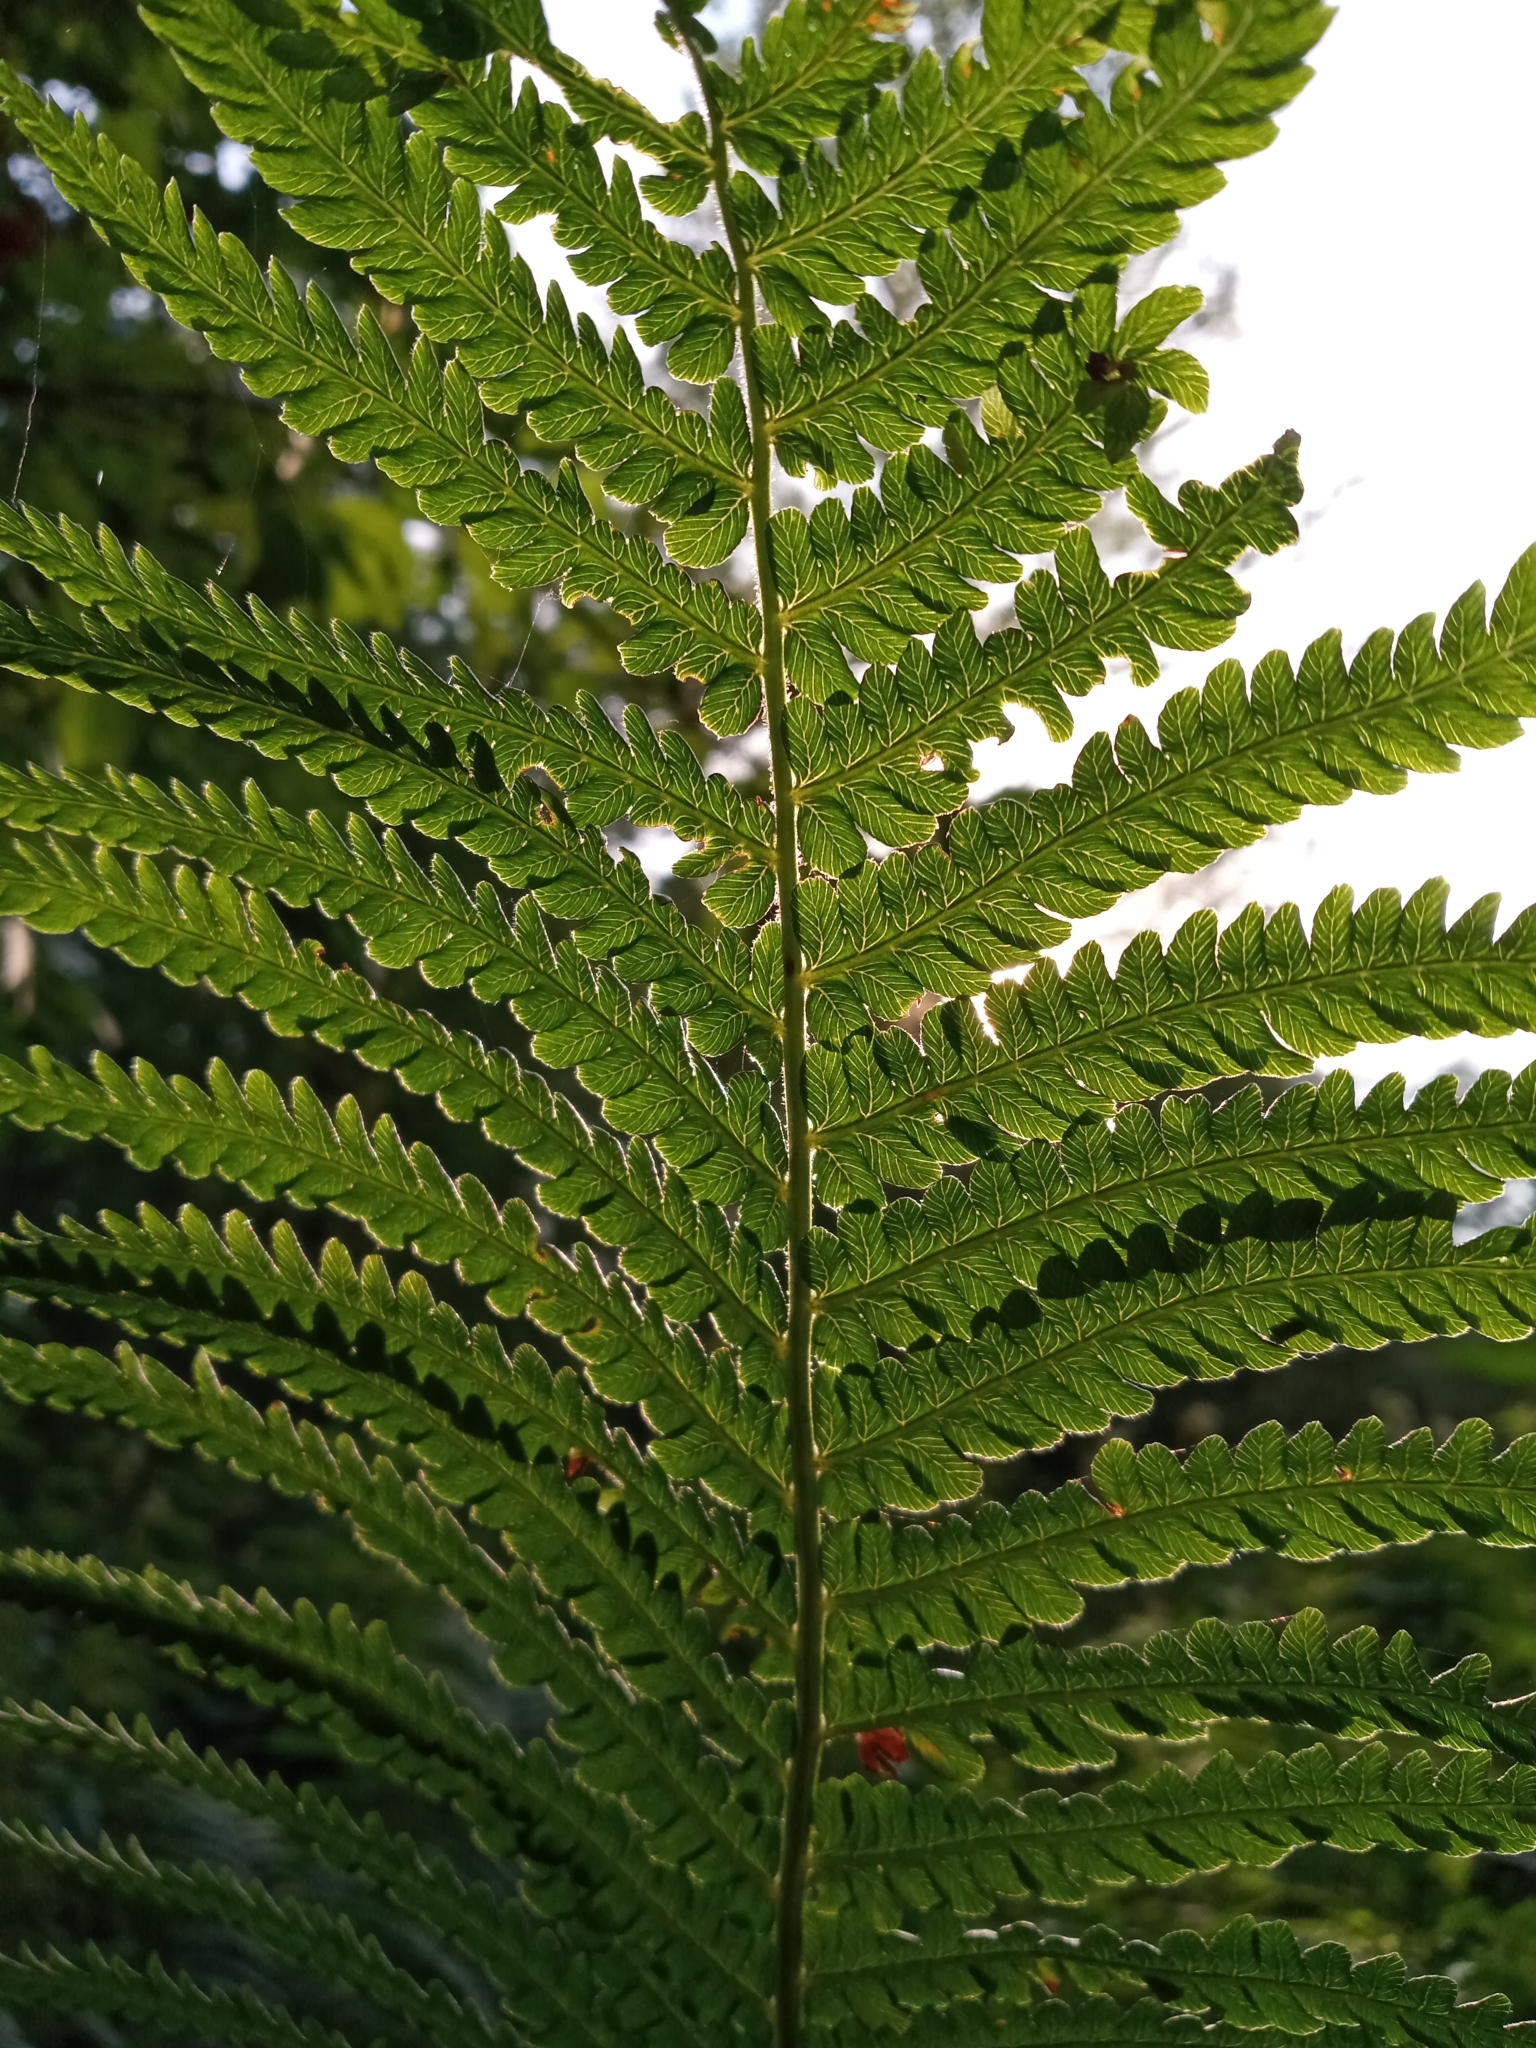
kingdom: Plantae
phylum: Tracheophyta
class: Polypodiopsida
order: Polypodiales
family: Onocleaceae
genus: Matteuccia
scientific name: Matteuccia struthiopteris
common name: Ostrich fern
